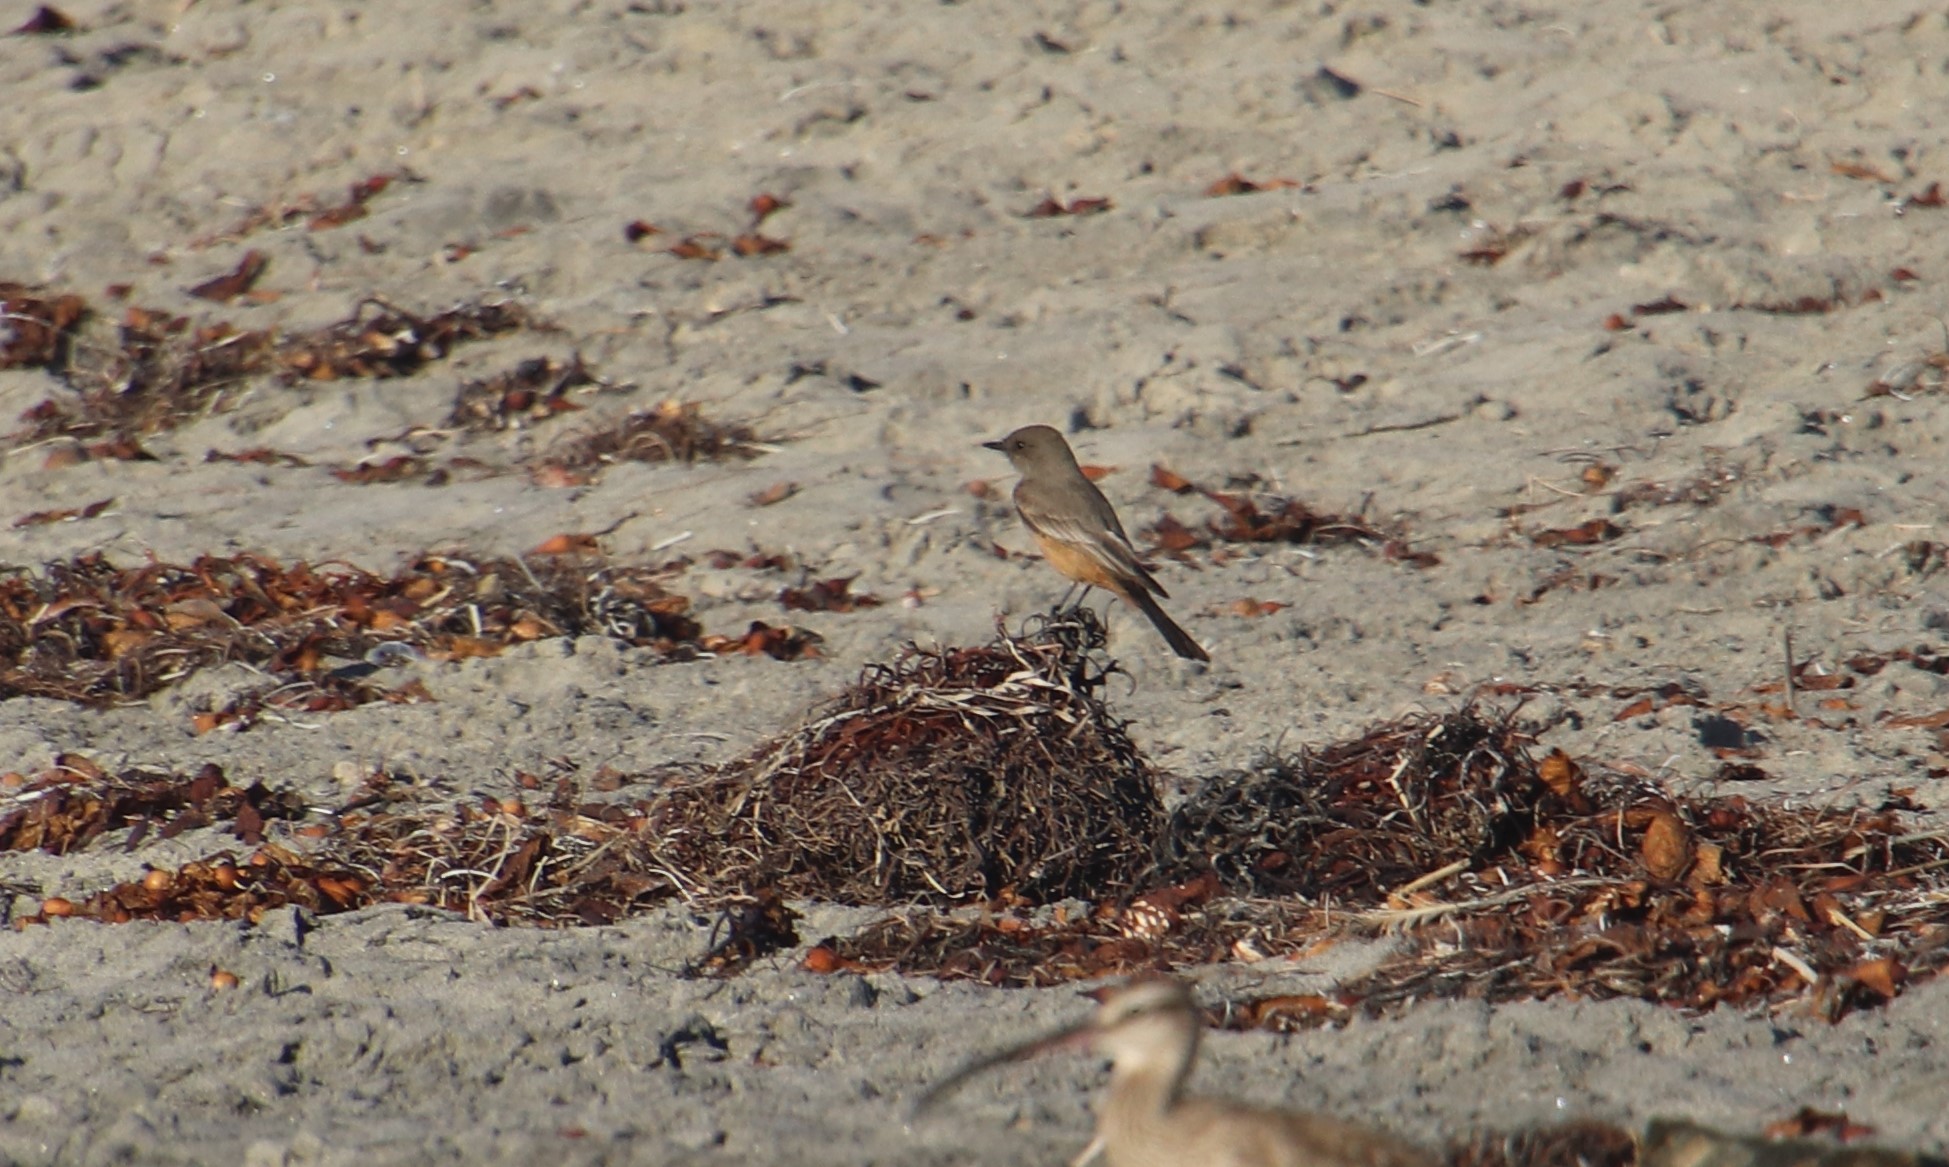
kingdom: Animalia
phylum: Chordata
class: Aves
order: Passeriformes
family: Tyrannidae
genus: Sayornis
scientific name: Sayornis saya
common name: Say's phoebe
